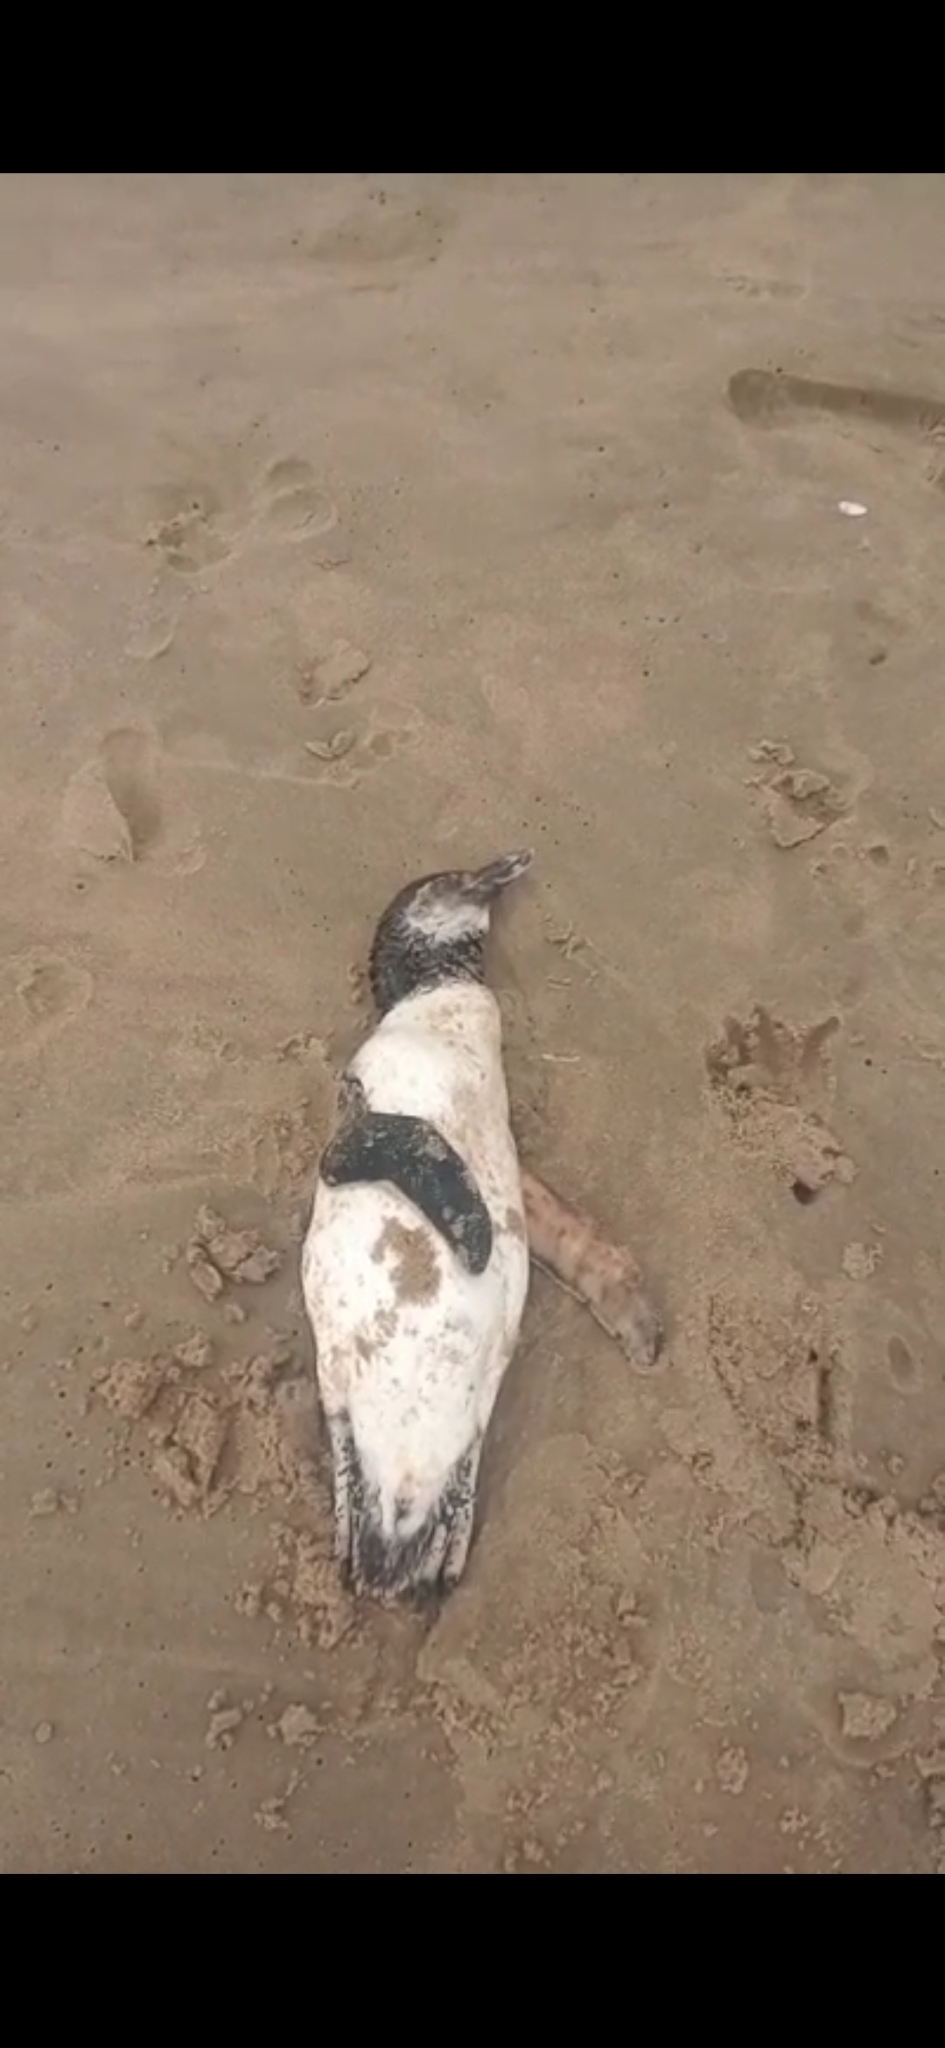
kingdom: Animalia
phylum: Chordata
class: Aves
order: Sphenisciformes
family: Spheniscidae
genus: Spheniscus
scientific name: Spheniscus magellanicus
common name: Magellanic penguin
